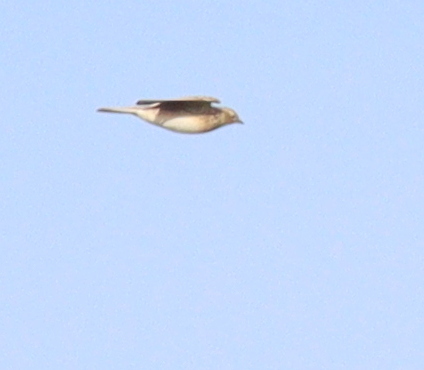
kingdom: Animalia
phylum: Chordata
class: Aves
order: Passeriformes
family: Alaudidae
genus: Alauda
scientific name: Alauda arvensis
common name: Eurasian skylark
